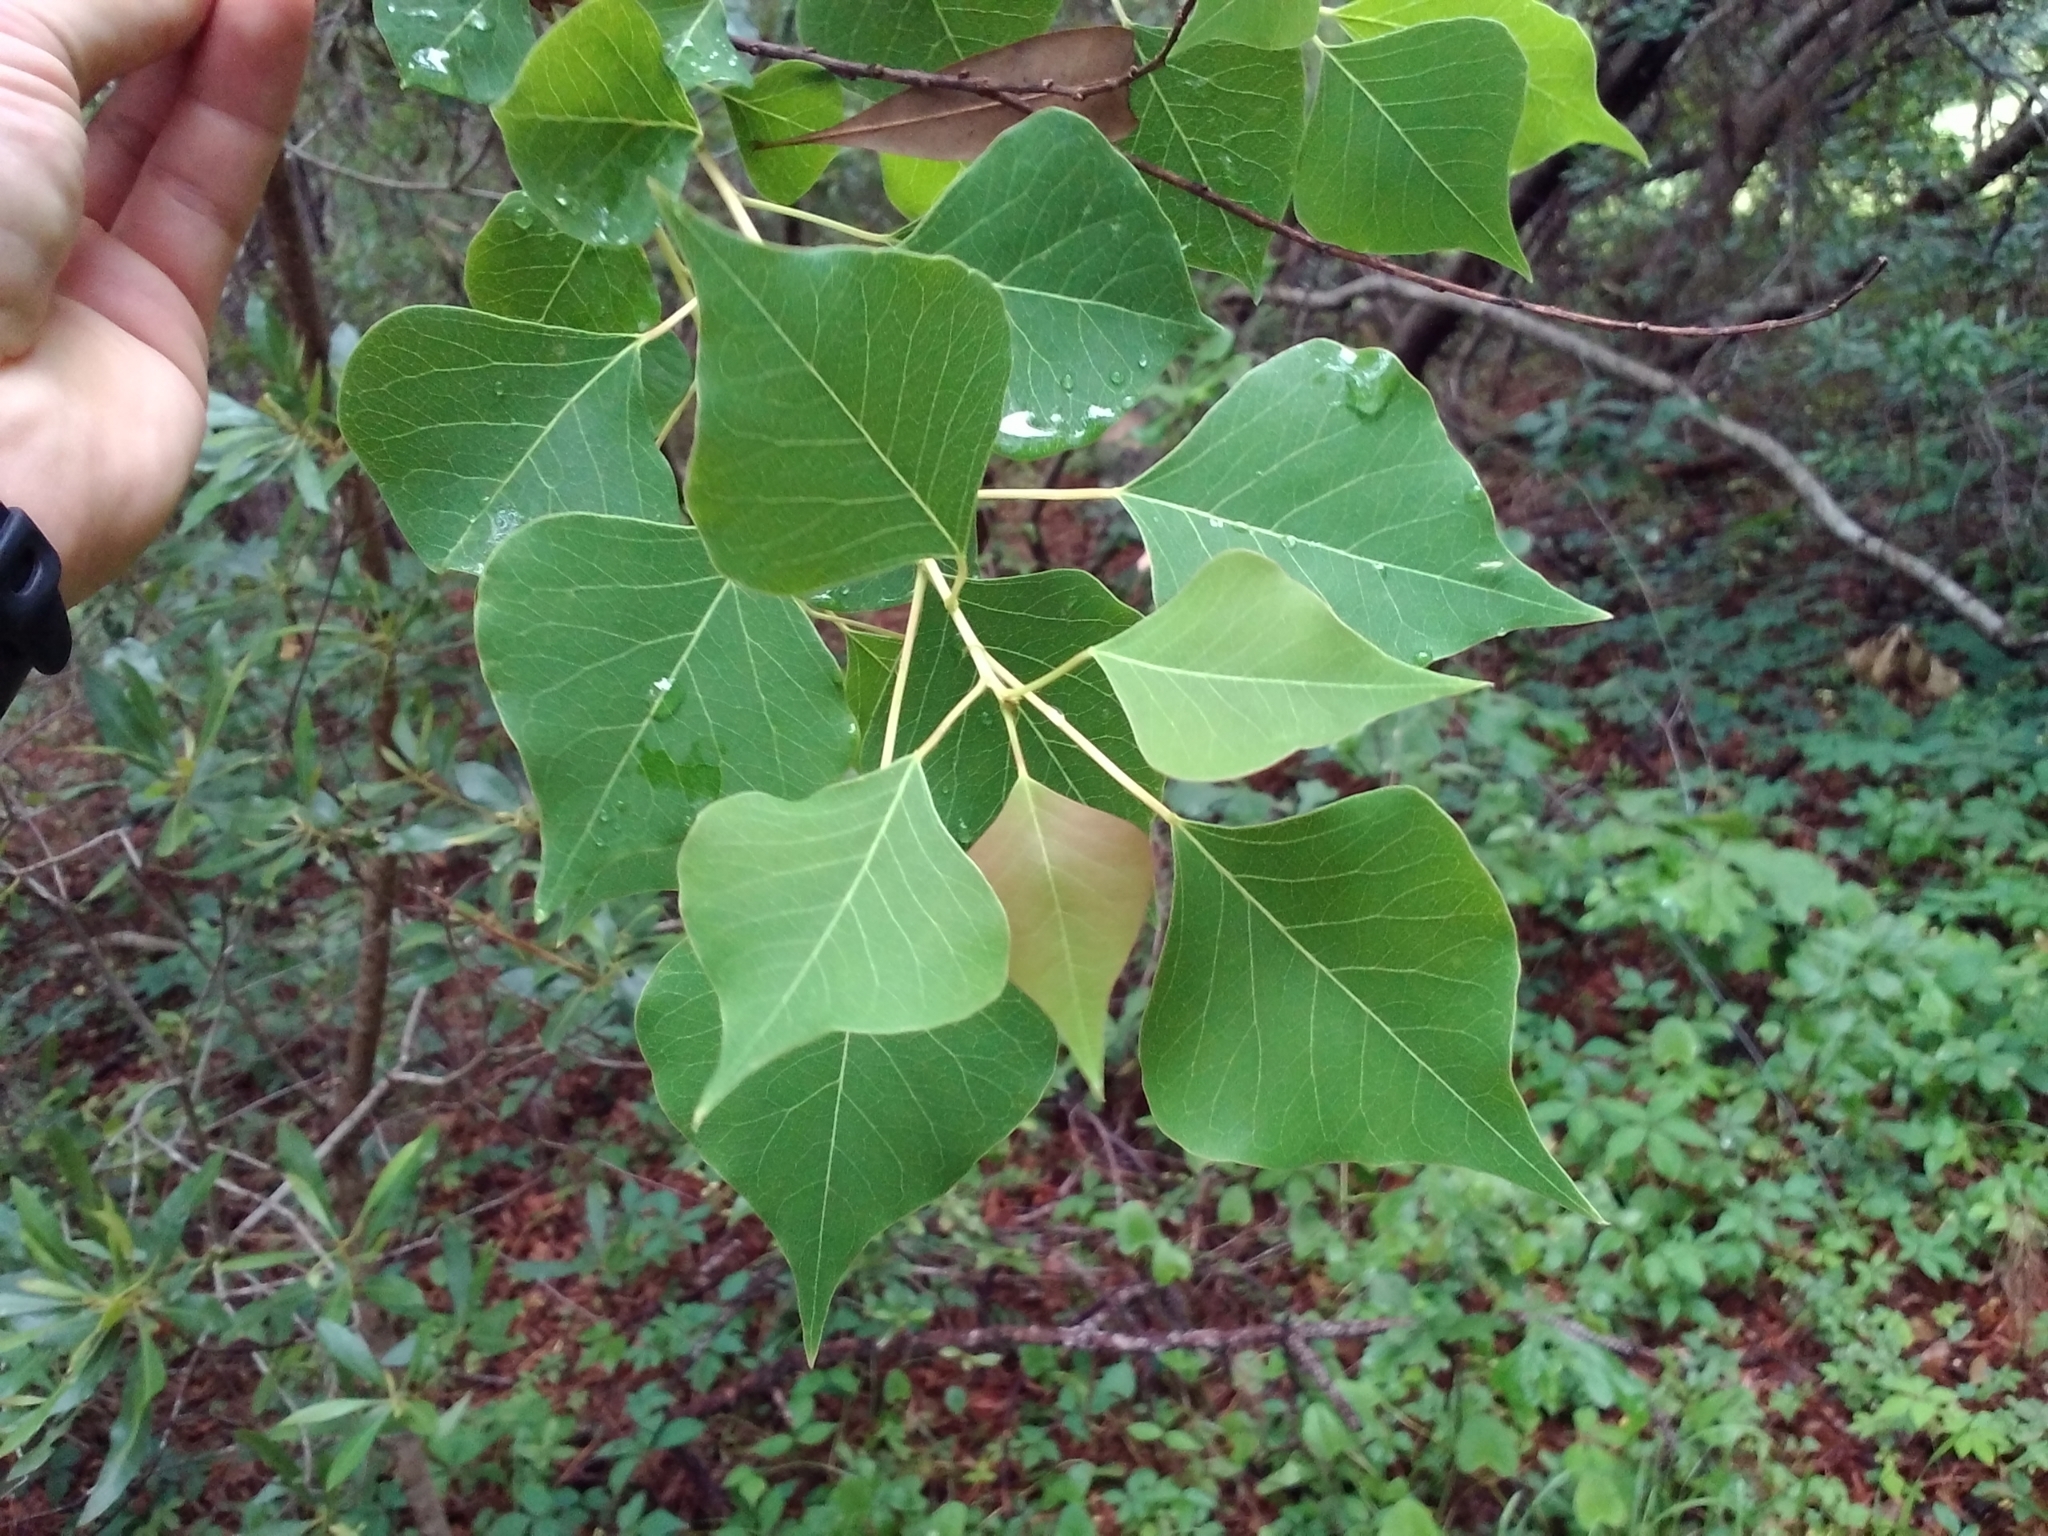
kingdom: Plantae
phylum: Tracheophyta
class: Magnoliopsida
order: Malpighiales
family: Euphorbiaceae
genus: Triadica
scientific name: Triadica sebifera
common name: Chinese tallow
